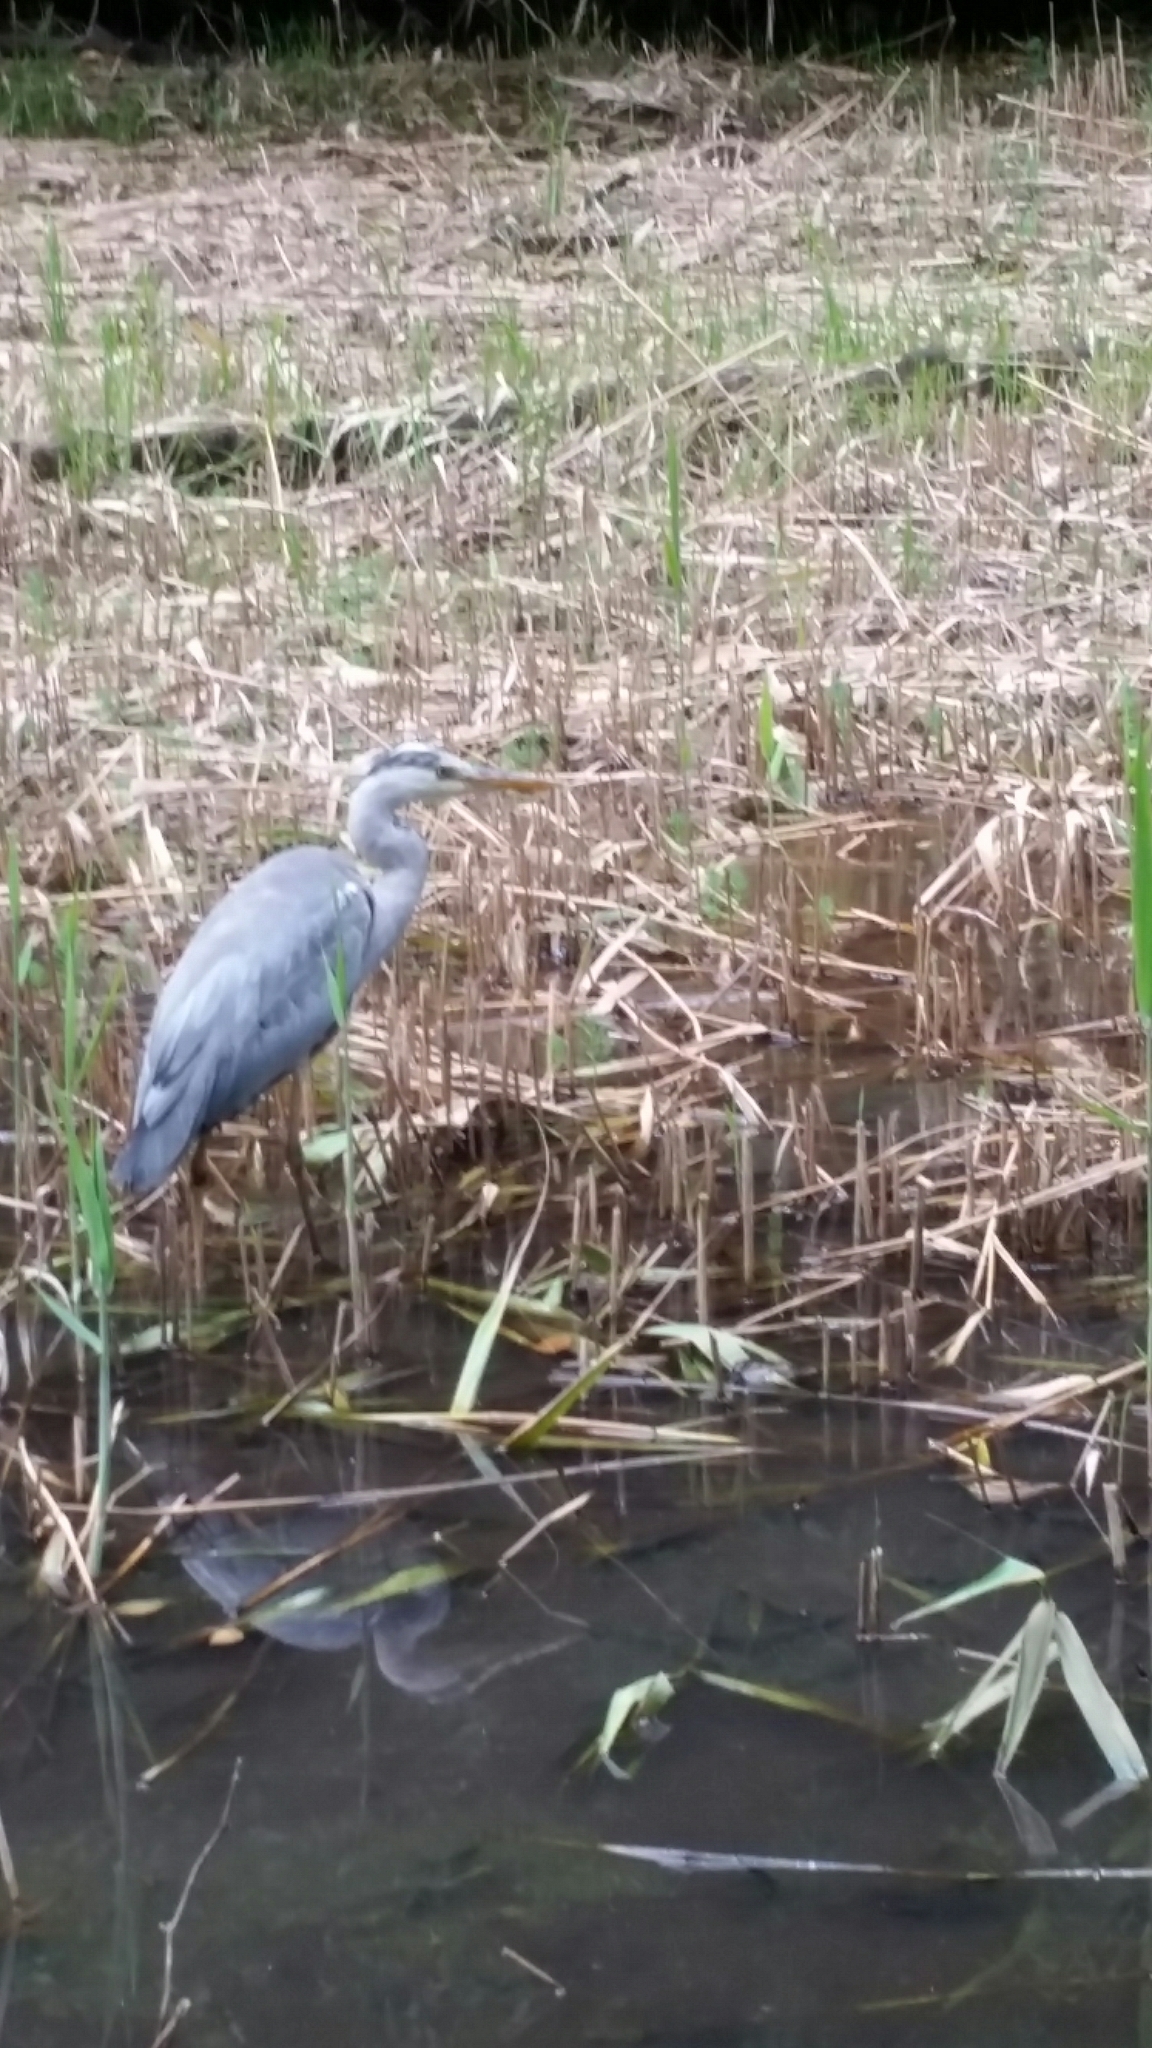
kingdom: Animalia
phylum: Chordata
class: Aves
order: Pelecaniformes
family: Ardeidae
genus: Ardea
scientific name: Ardea cinerea
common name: Grey heron
